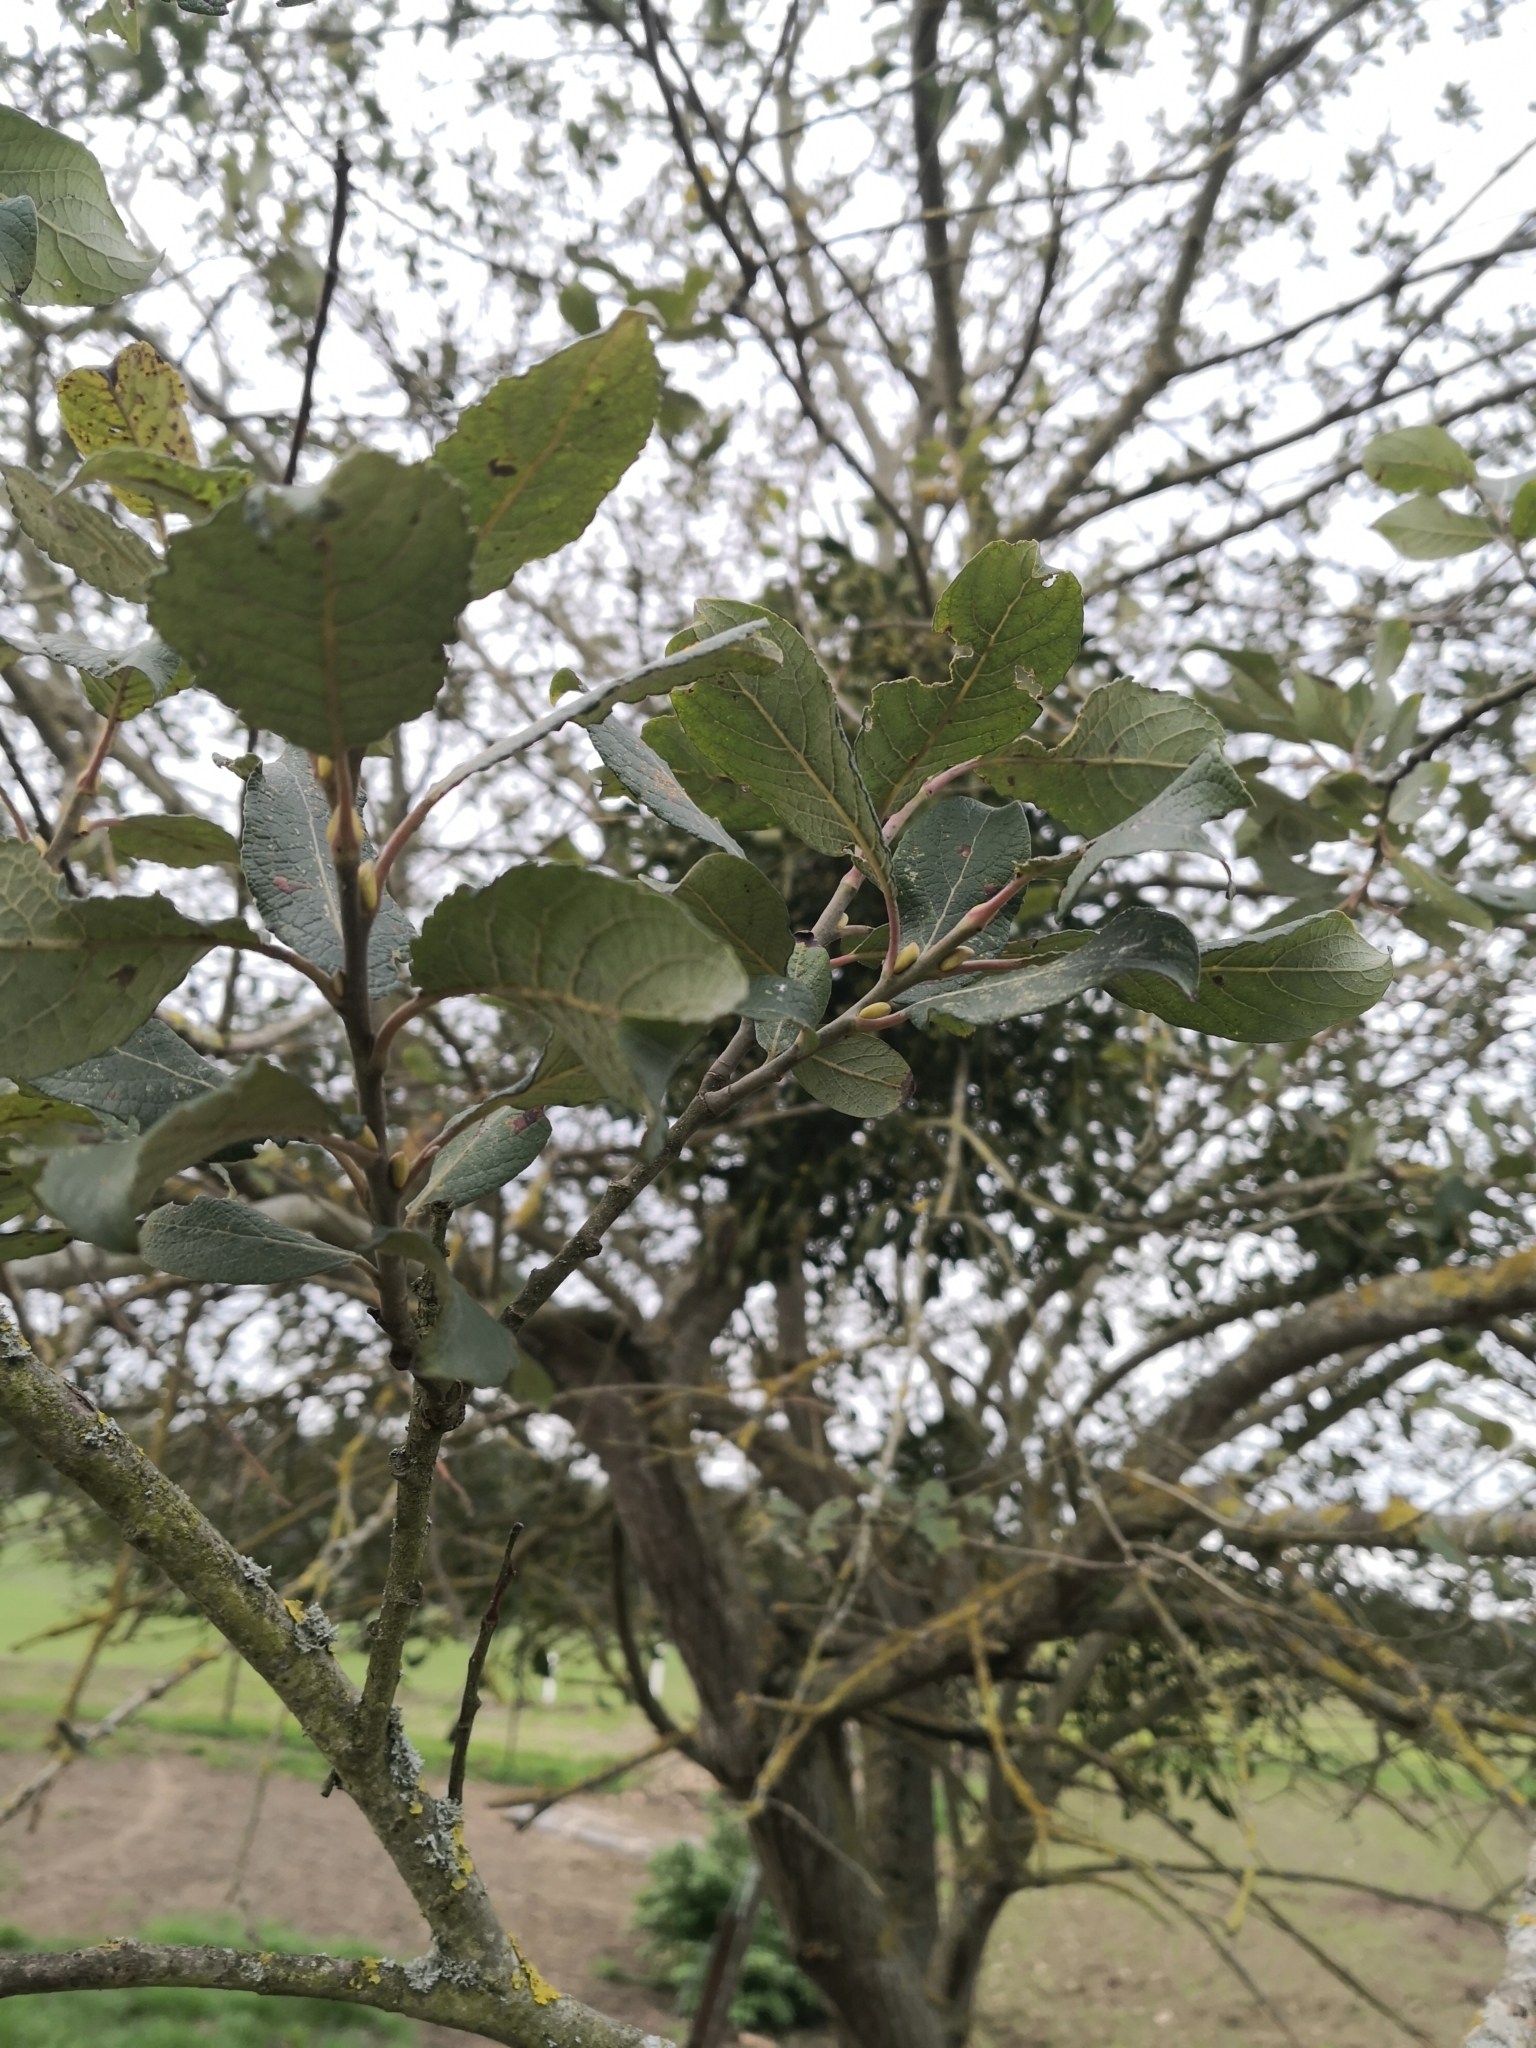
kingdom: Plantae
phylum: Tracheophyta
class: Magnoliopsida
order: Malpighiales
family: Salicaceae
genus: Salix
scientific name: Salix caprea
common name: Goat willow
